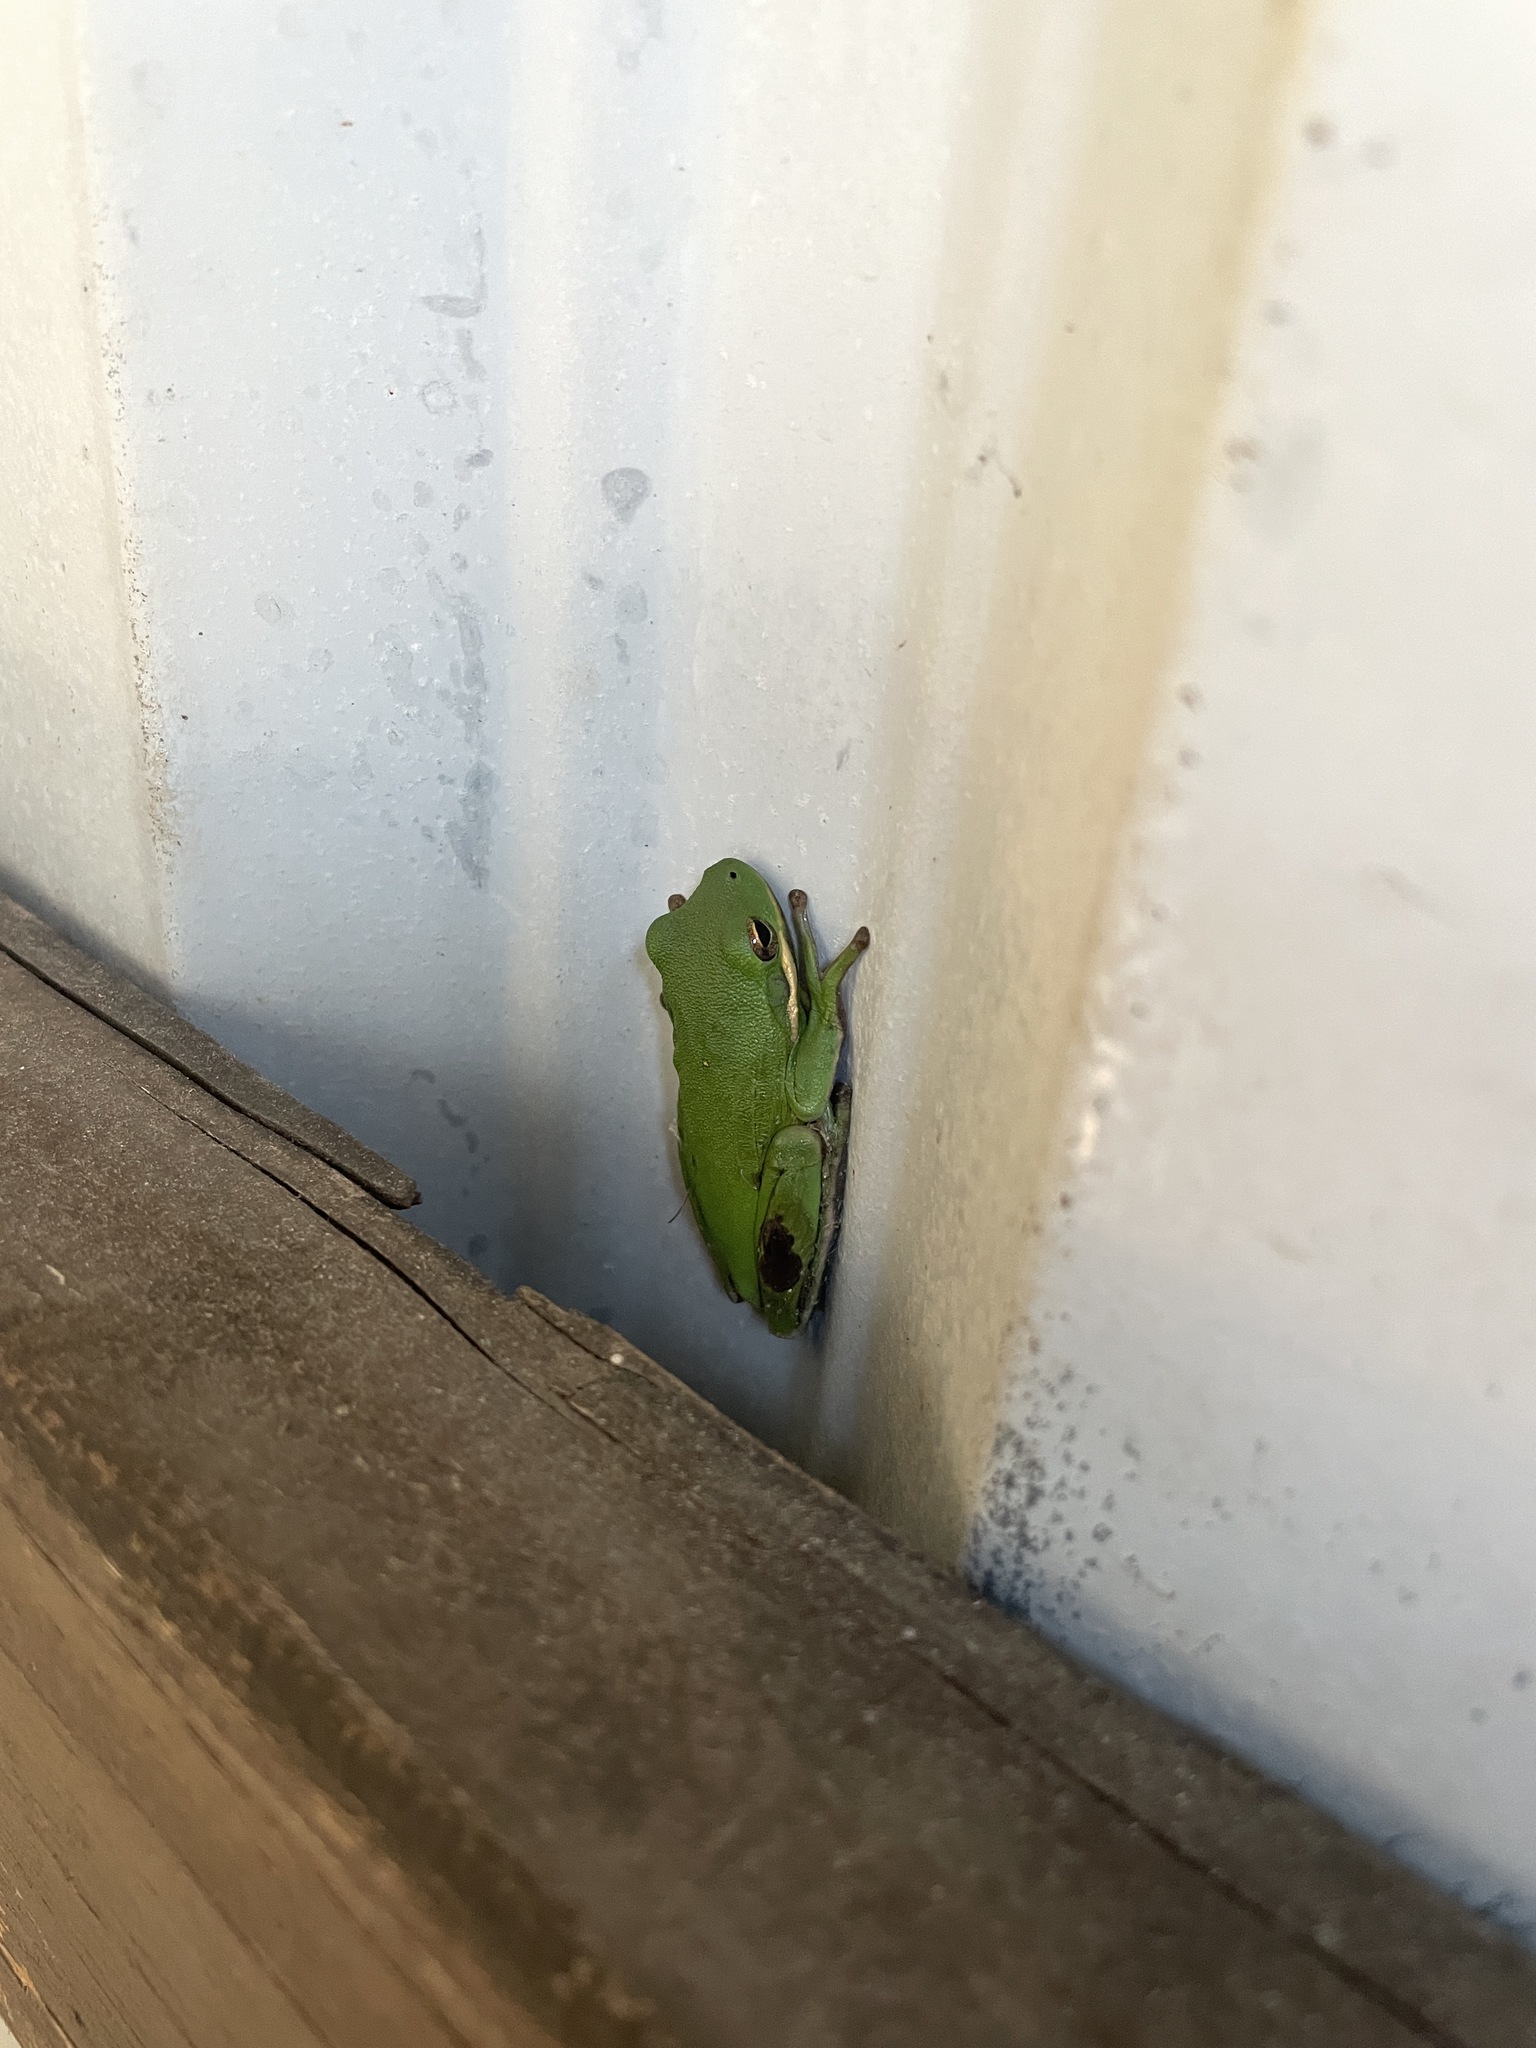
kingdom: Animalia
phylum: Chordata
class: Amphibia
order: Anura
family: Hylidae
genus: Dryophytes
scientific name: Dryophytes cinereus
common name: Green treefrog
